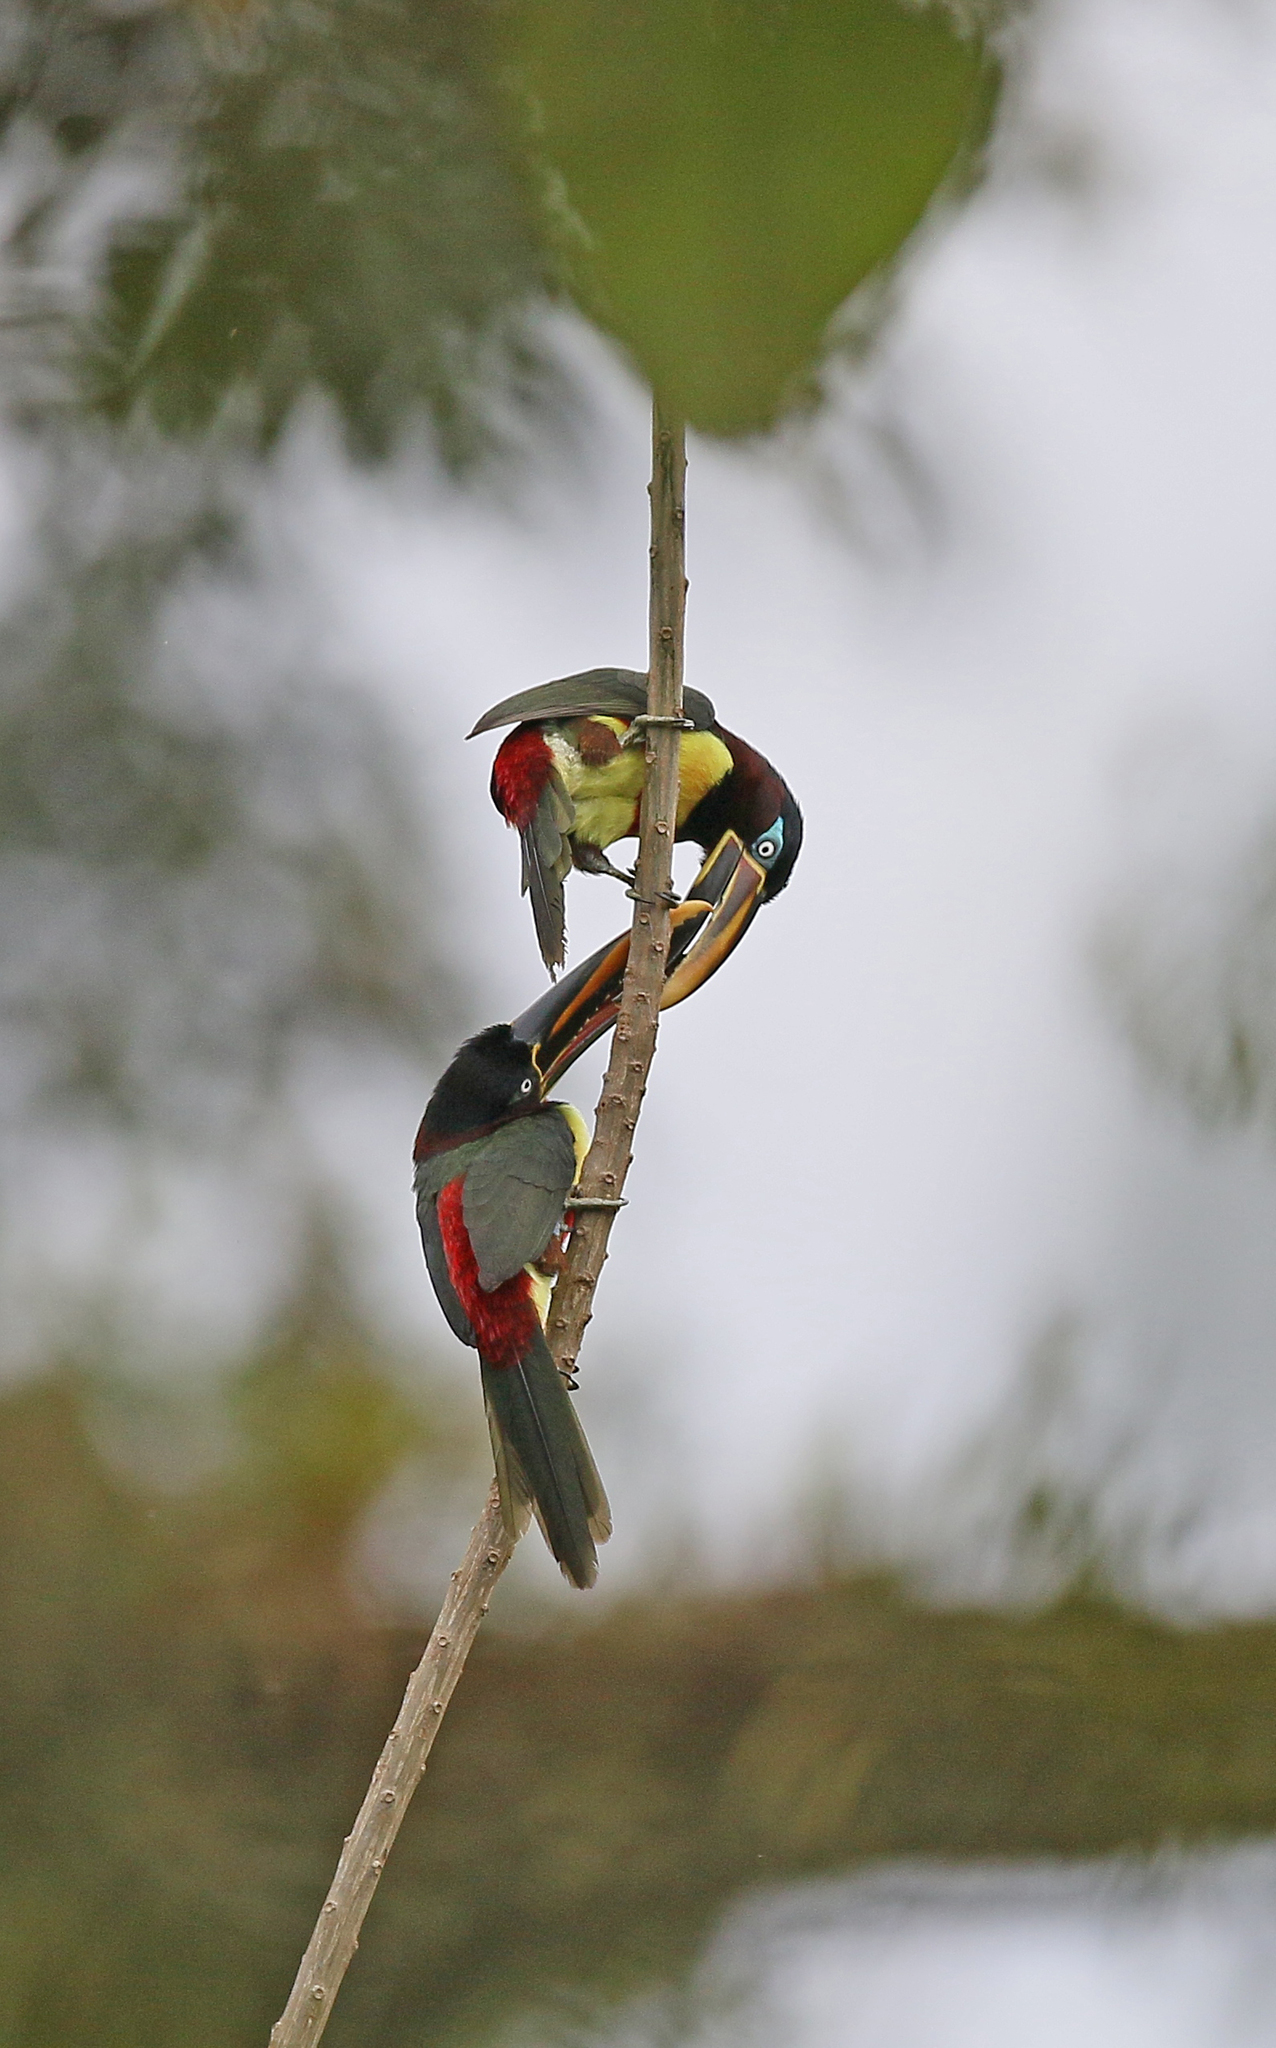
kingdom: Animalia
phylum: Chordata
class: Aves
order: Piciformes
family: Ramphastidae
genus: Pteroglossus
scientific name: Pteroglossus castanotis
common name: Chestnut-eared aracari
